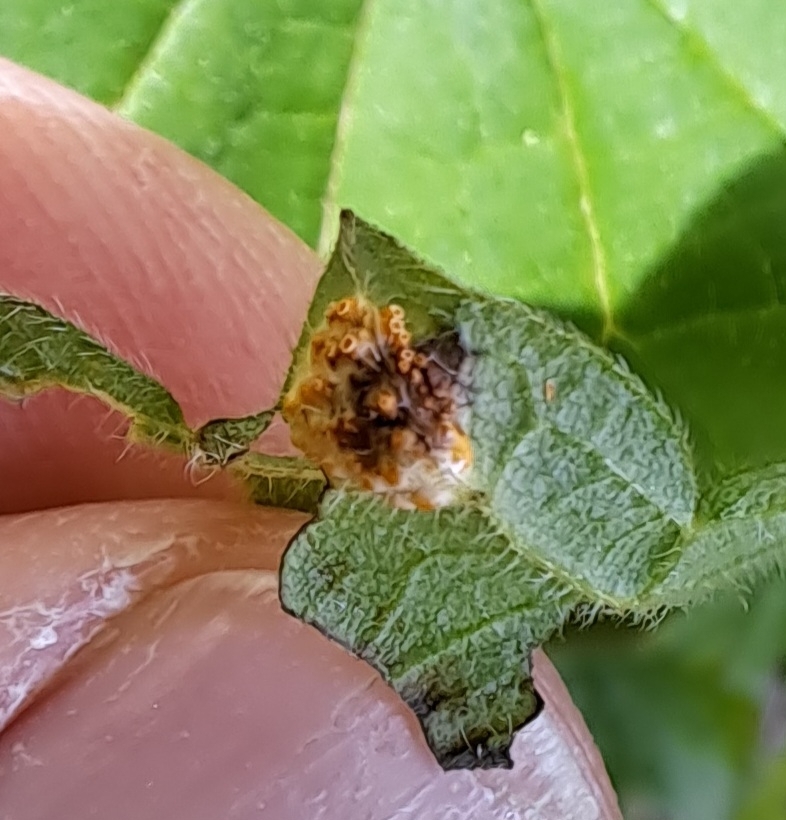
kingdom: Fungi
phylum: Basidiomycota
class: Pucciniomycetes
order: Pucciniales
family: Pucciniaceae
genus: Puccinia
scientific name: Puccinia urticata
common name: Nettle clustercup rust fungus
